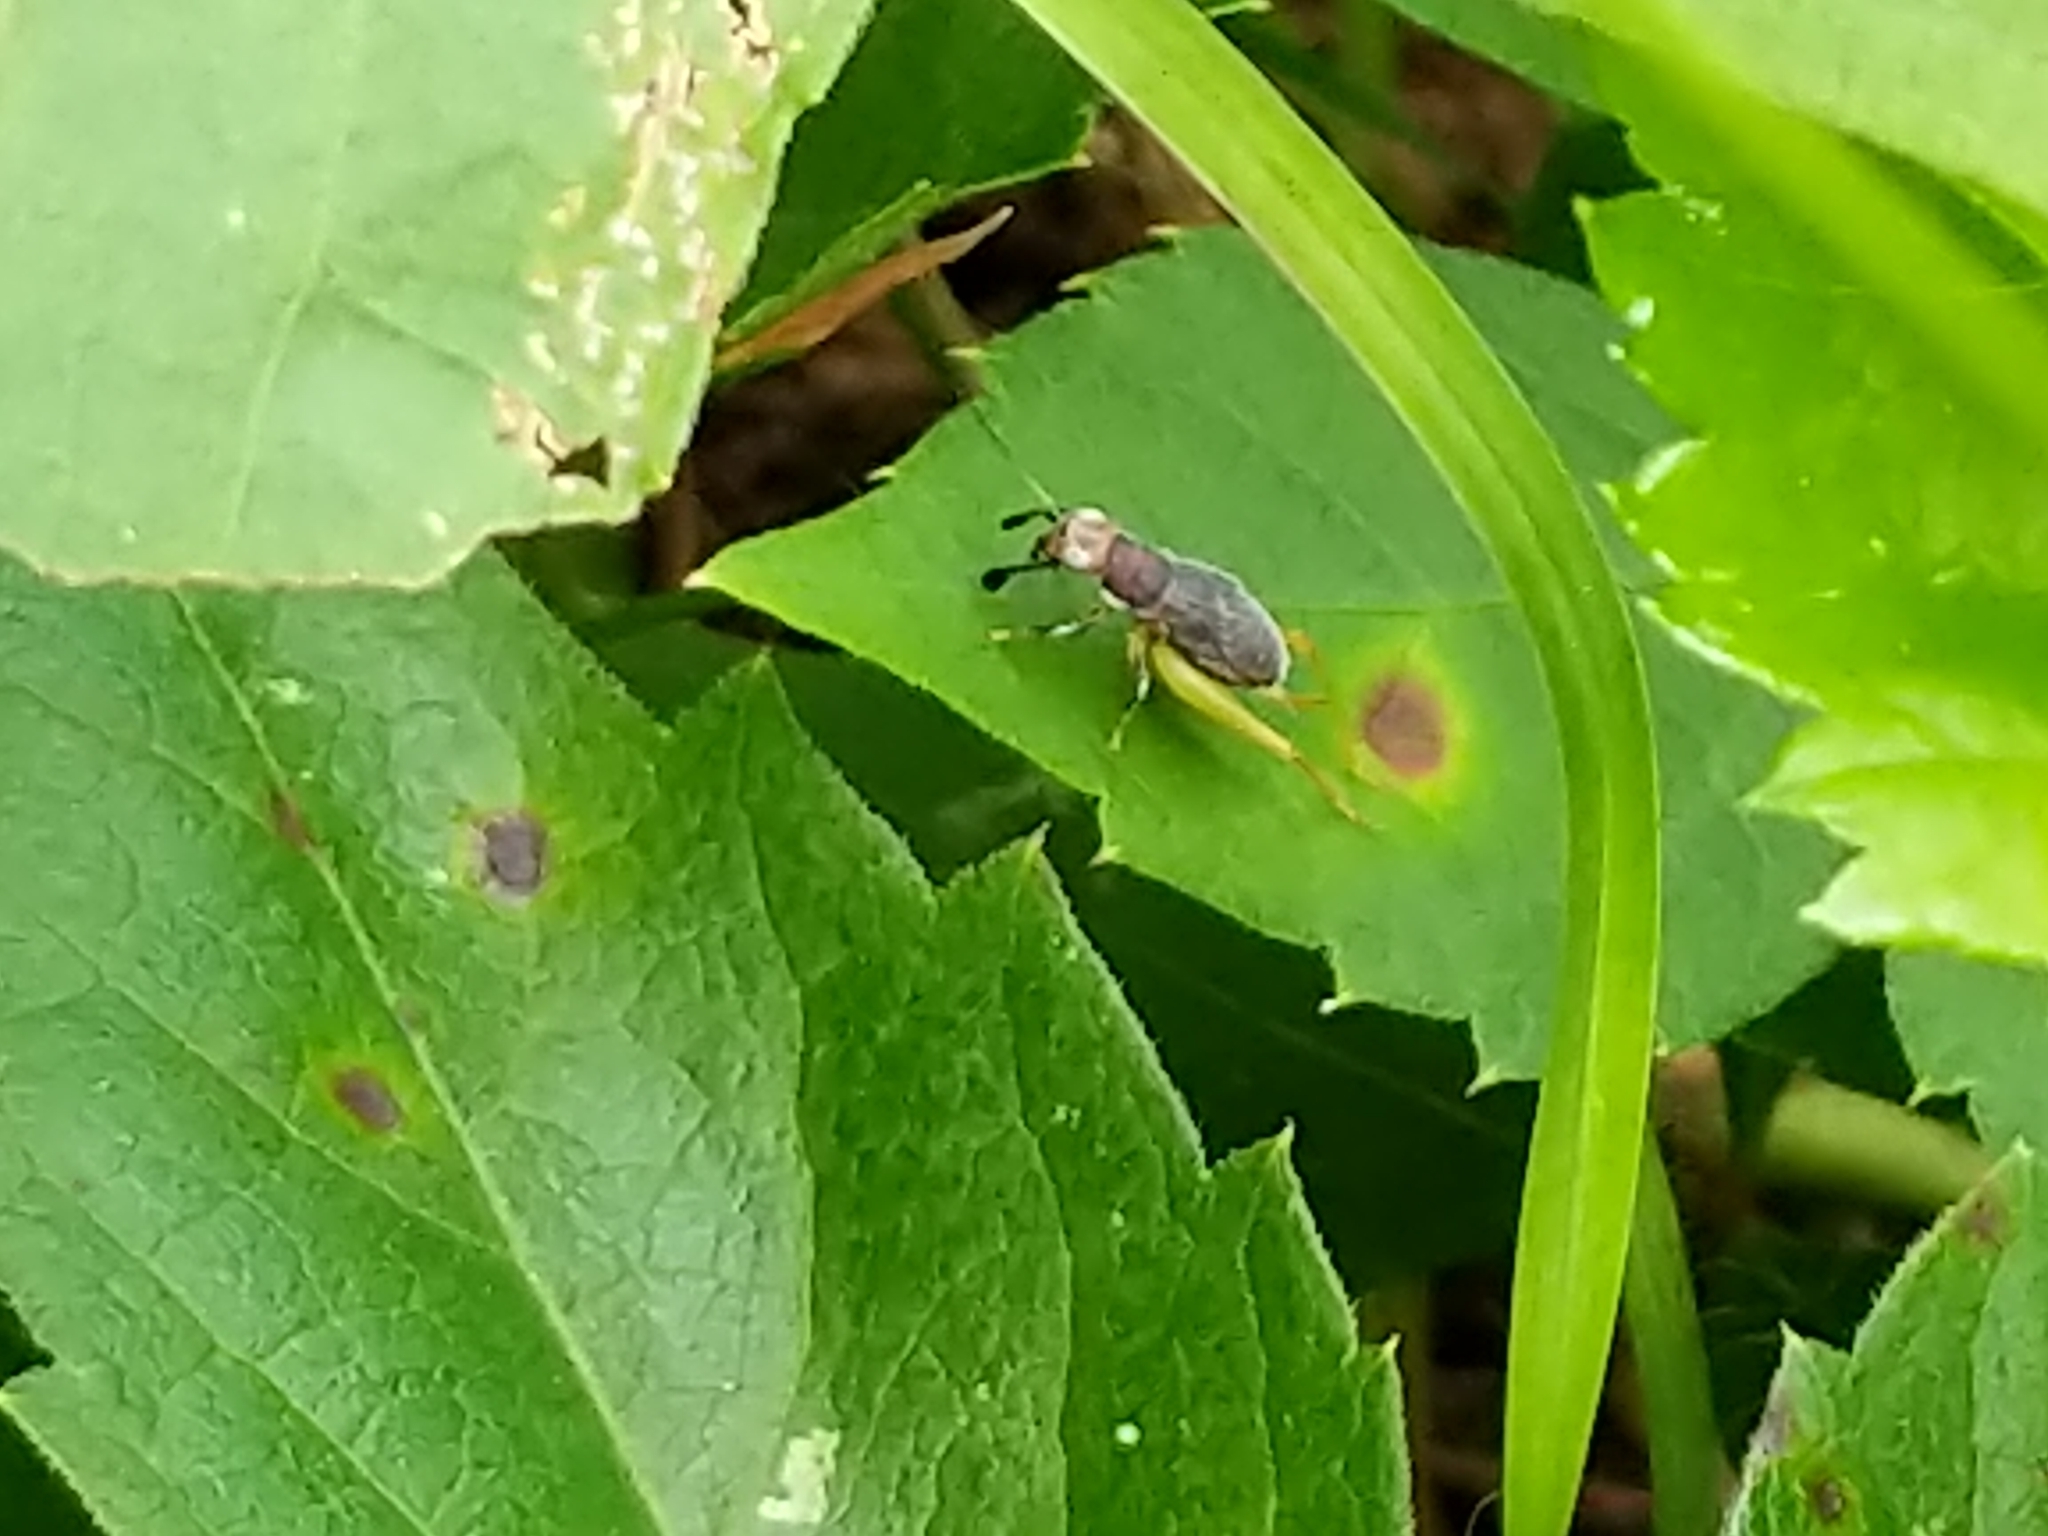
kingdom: Animalia
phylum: Arthropoda
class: Insecta
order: Orthoptera
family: Trigonidiidae
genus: Phyllopalpus
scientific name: Phyllopalpus pulchellus
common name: Handsome trig
